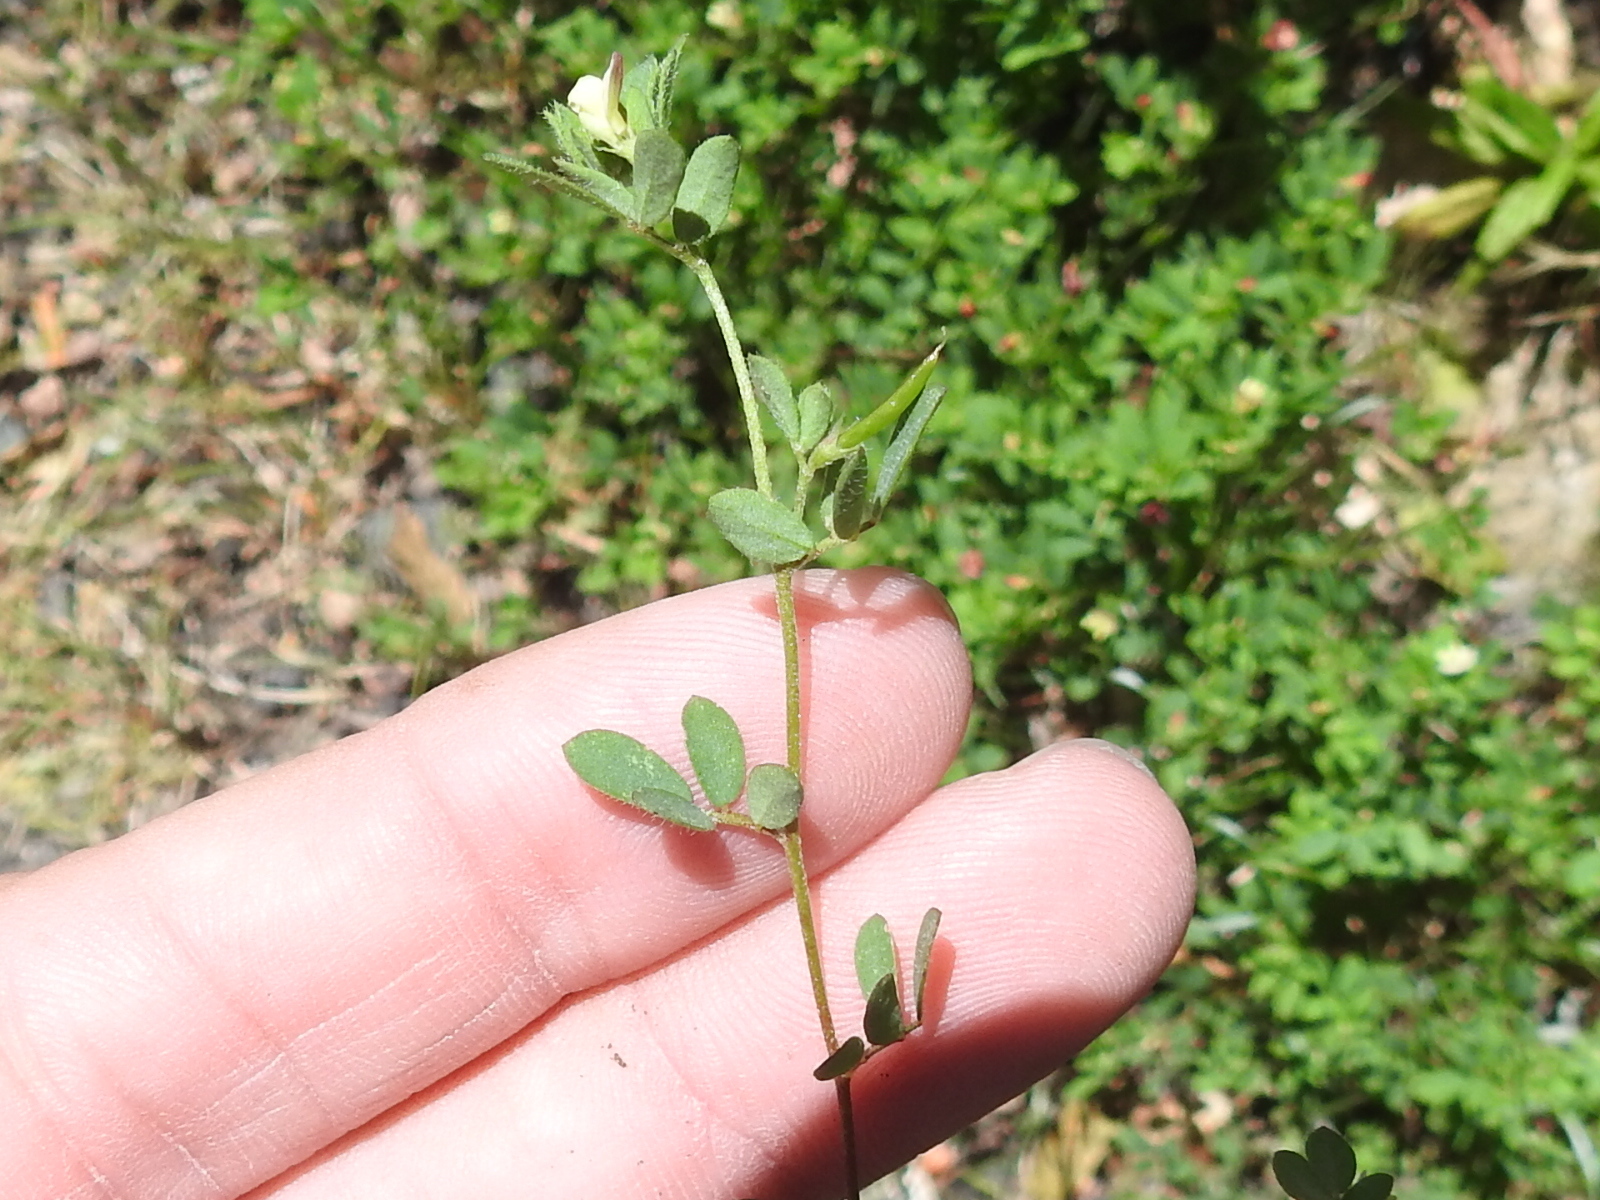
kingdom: Plantae
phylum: Tracheophyta
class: Magnoliopsida
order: Fabales
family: Fabaceae
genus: Acmispon
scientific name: Acmispon parviflorus
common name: Desert deer-vetch
